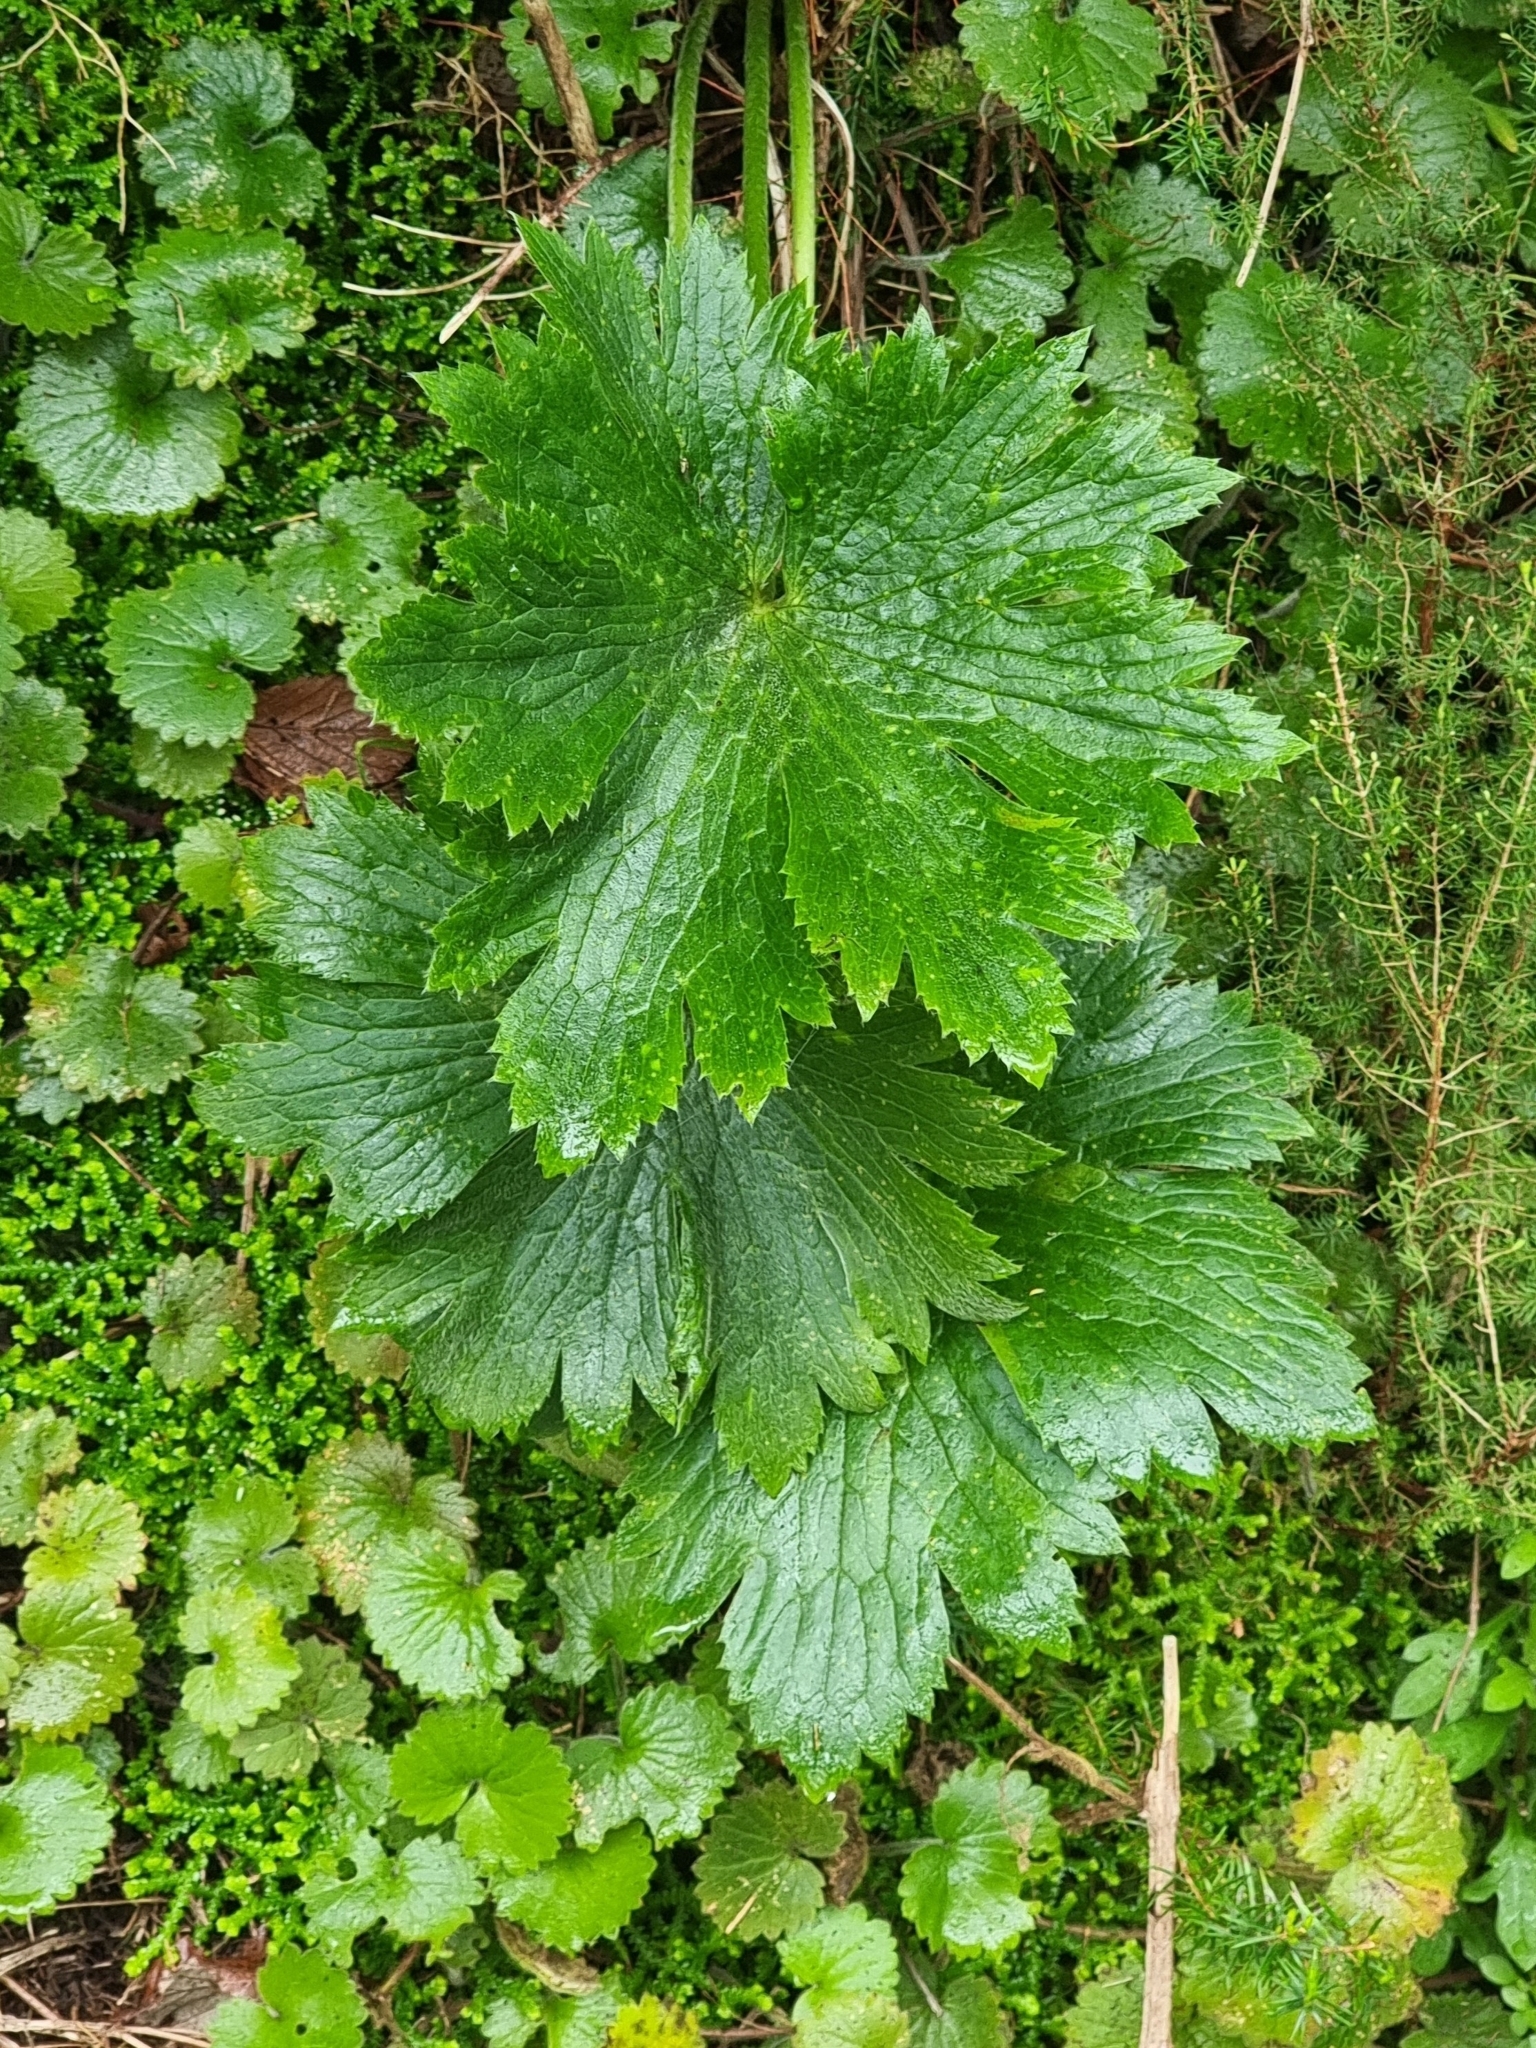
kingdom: Plantae
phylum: Tracheophyta
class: Magnoliopsida
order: Ranunculales
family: Ranunculaceae
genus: Ranunculus
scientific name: Ranunculus cortusifolius
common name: Azores buttercup
